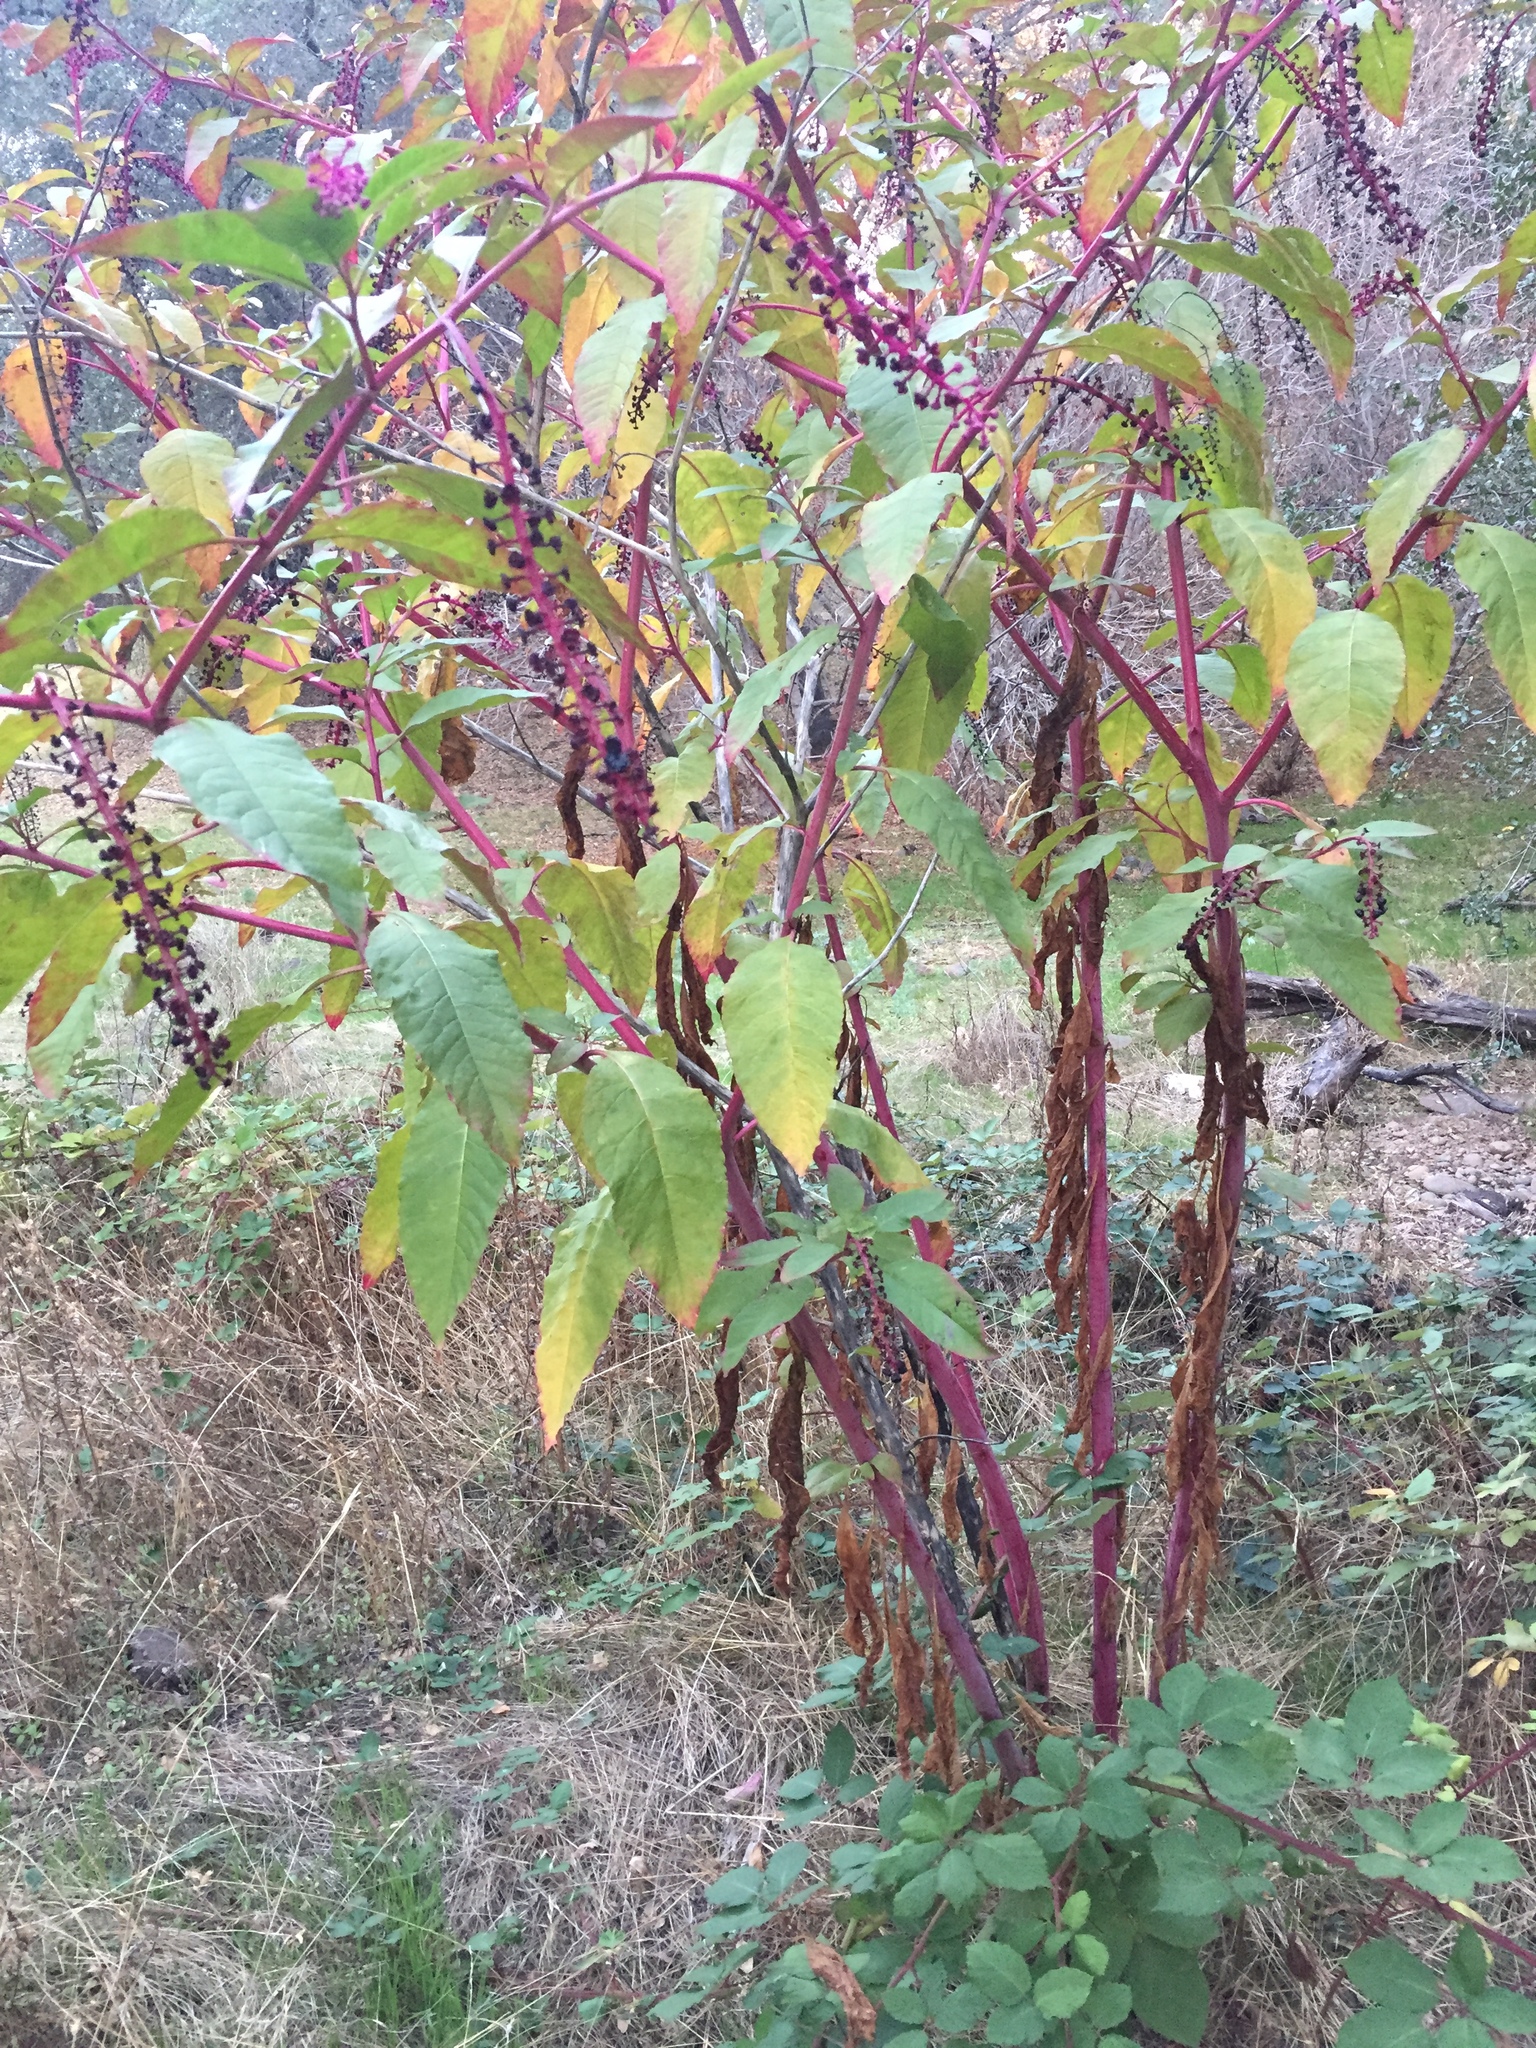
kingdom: Plantae
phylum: Tracheophyta
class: Magnoliopsida
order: Caryophyllales
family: Phytolaccaceae
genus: Phytolacca
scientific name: Phytolacca americana
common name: American pokeweed
